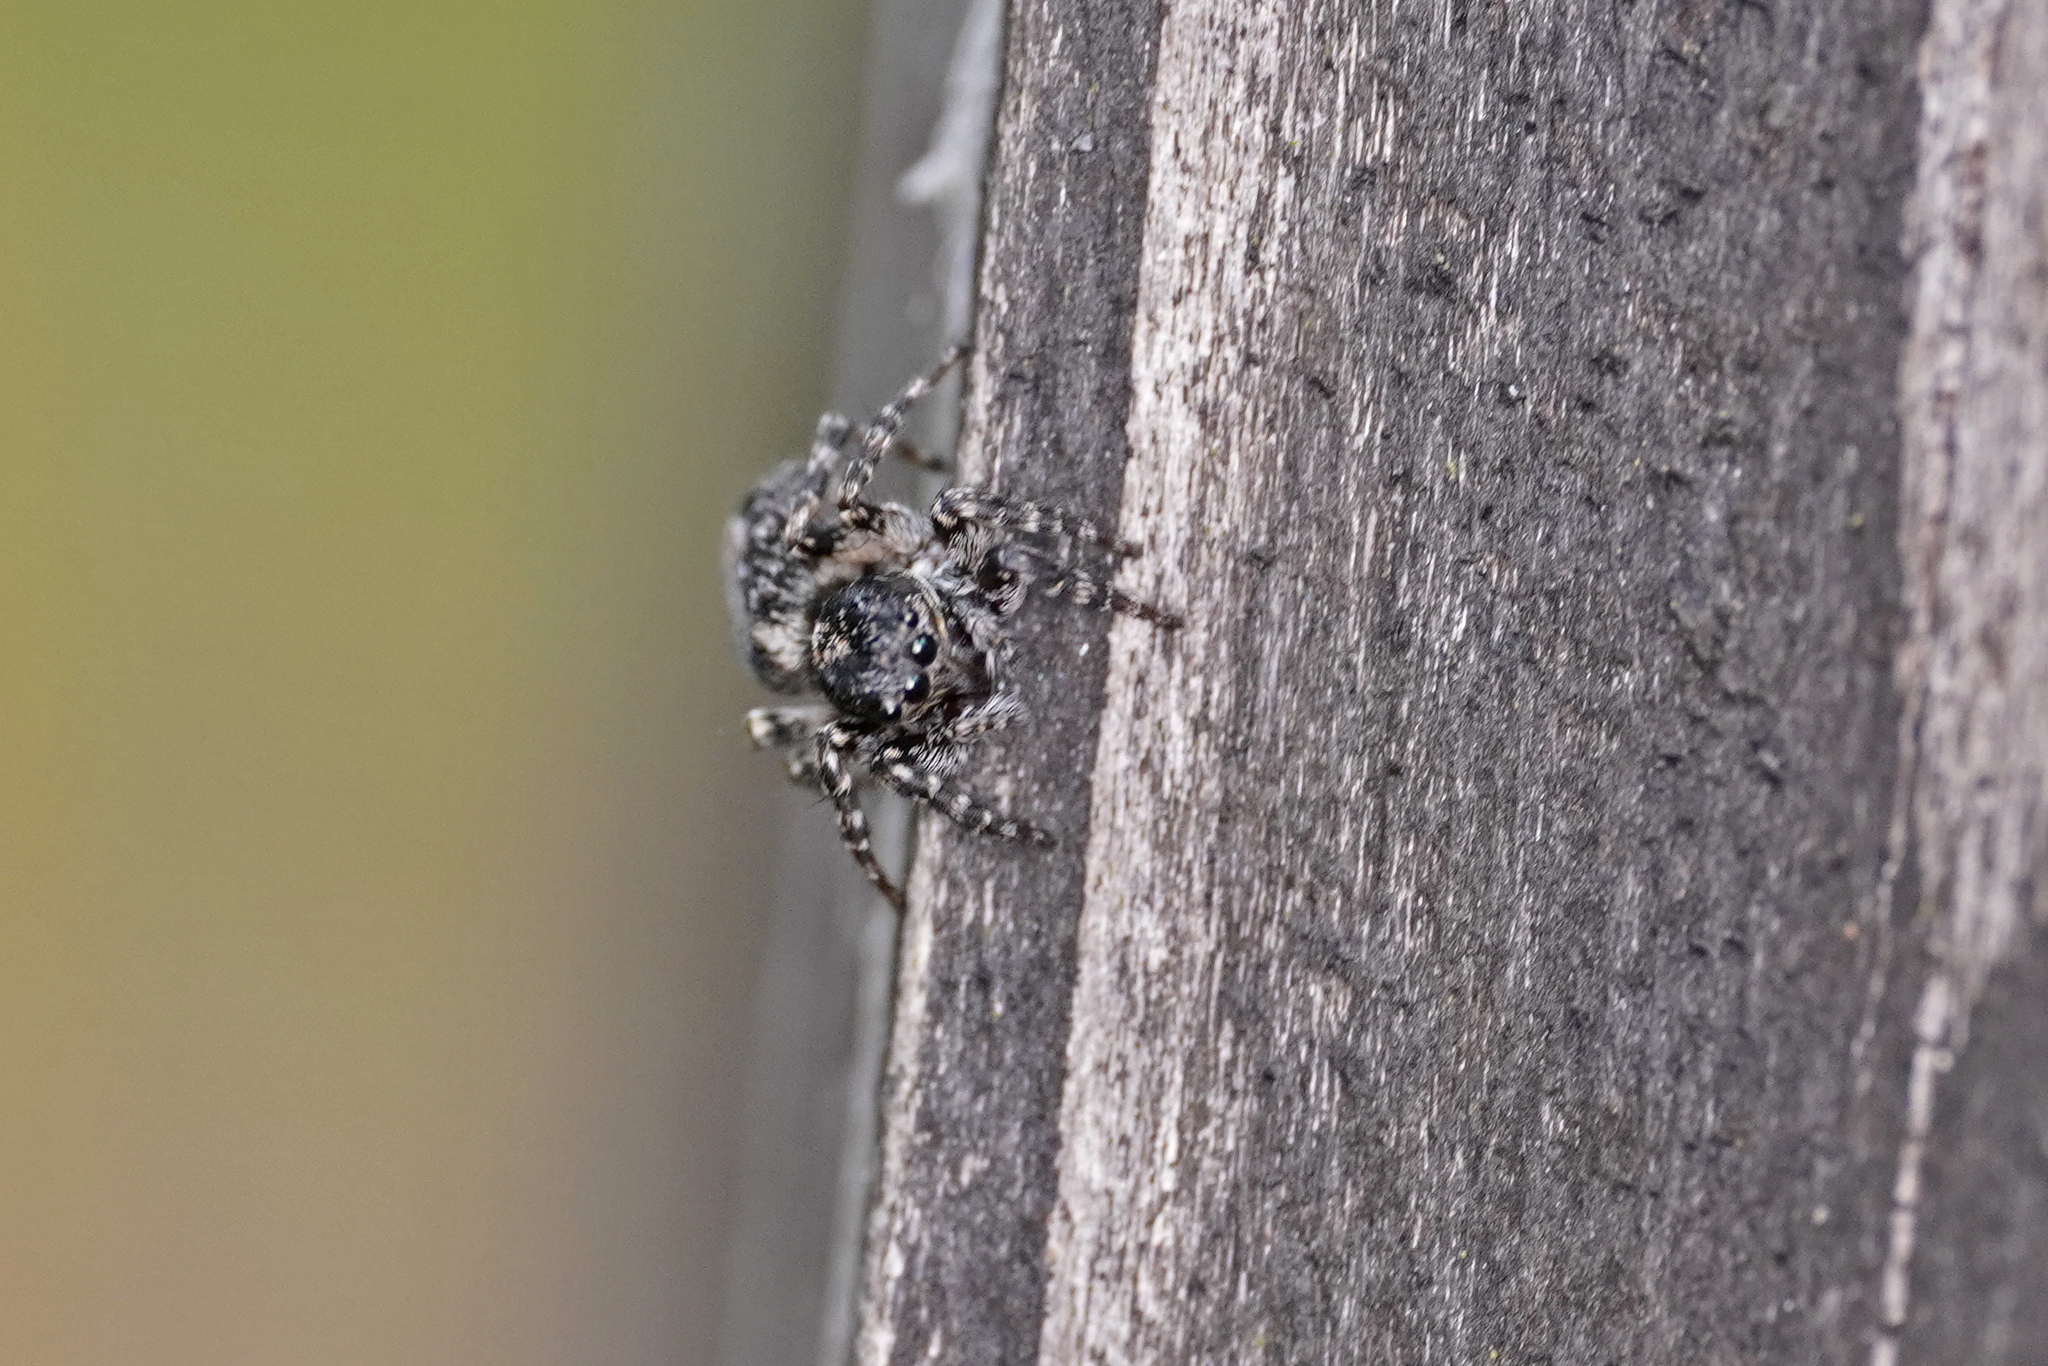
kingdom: Animalia
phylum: Arthropoda
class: Arachnida
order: Araneae
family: Salticidae
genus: Attulus
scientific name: Attulus terebratus
